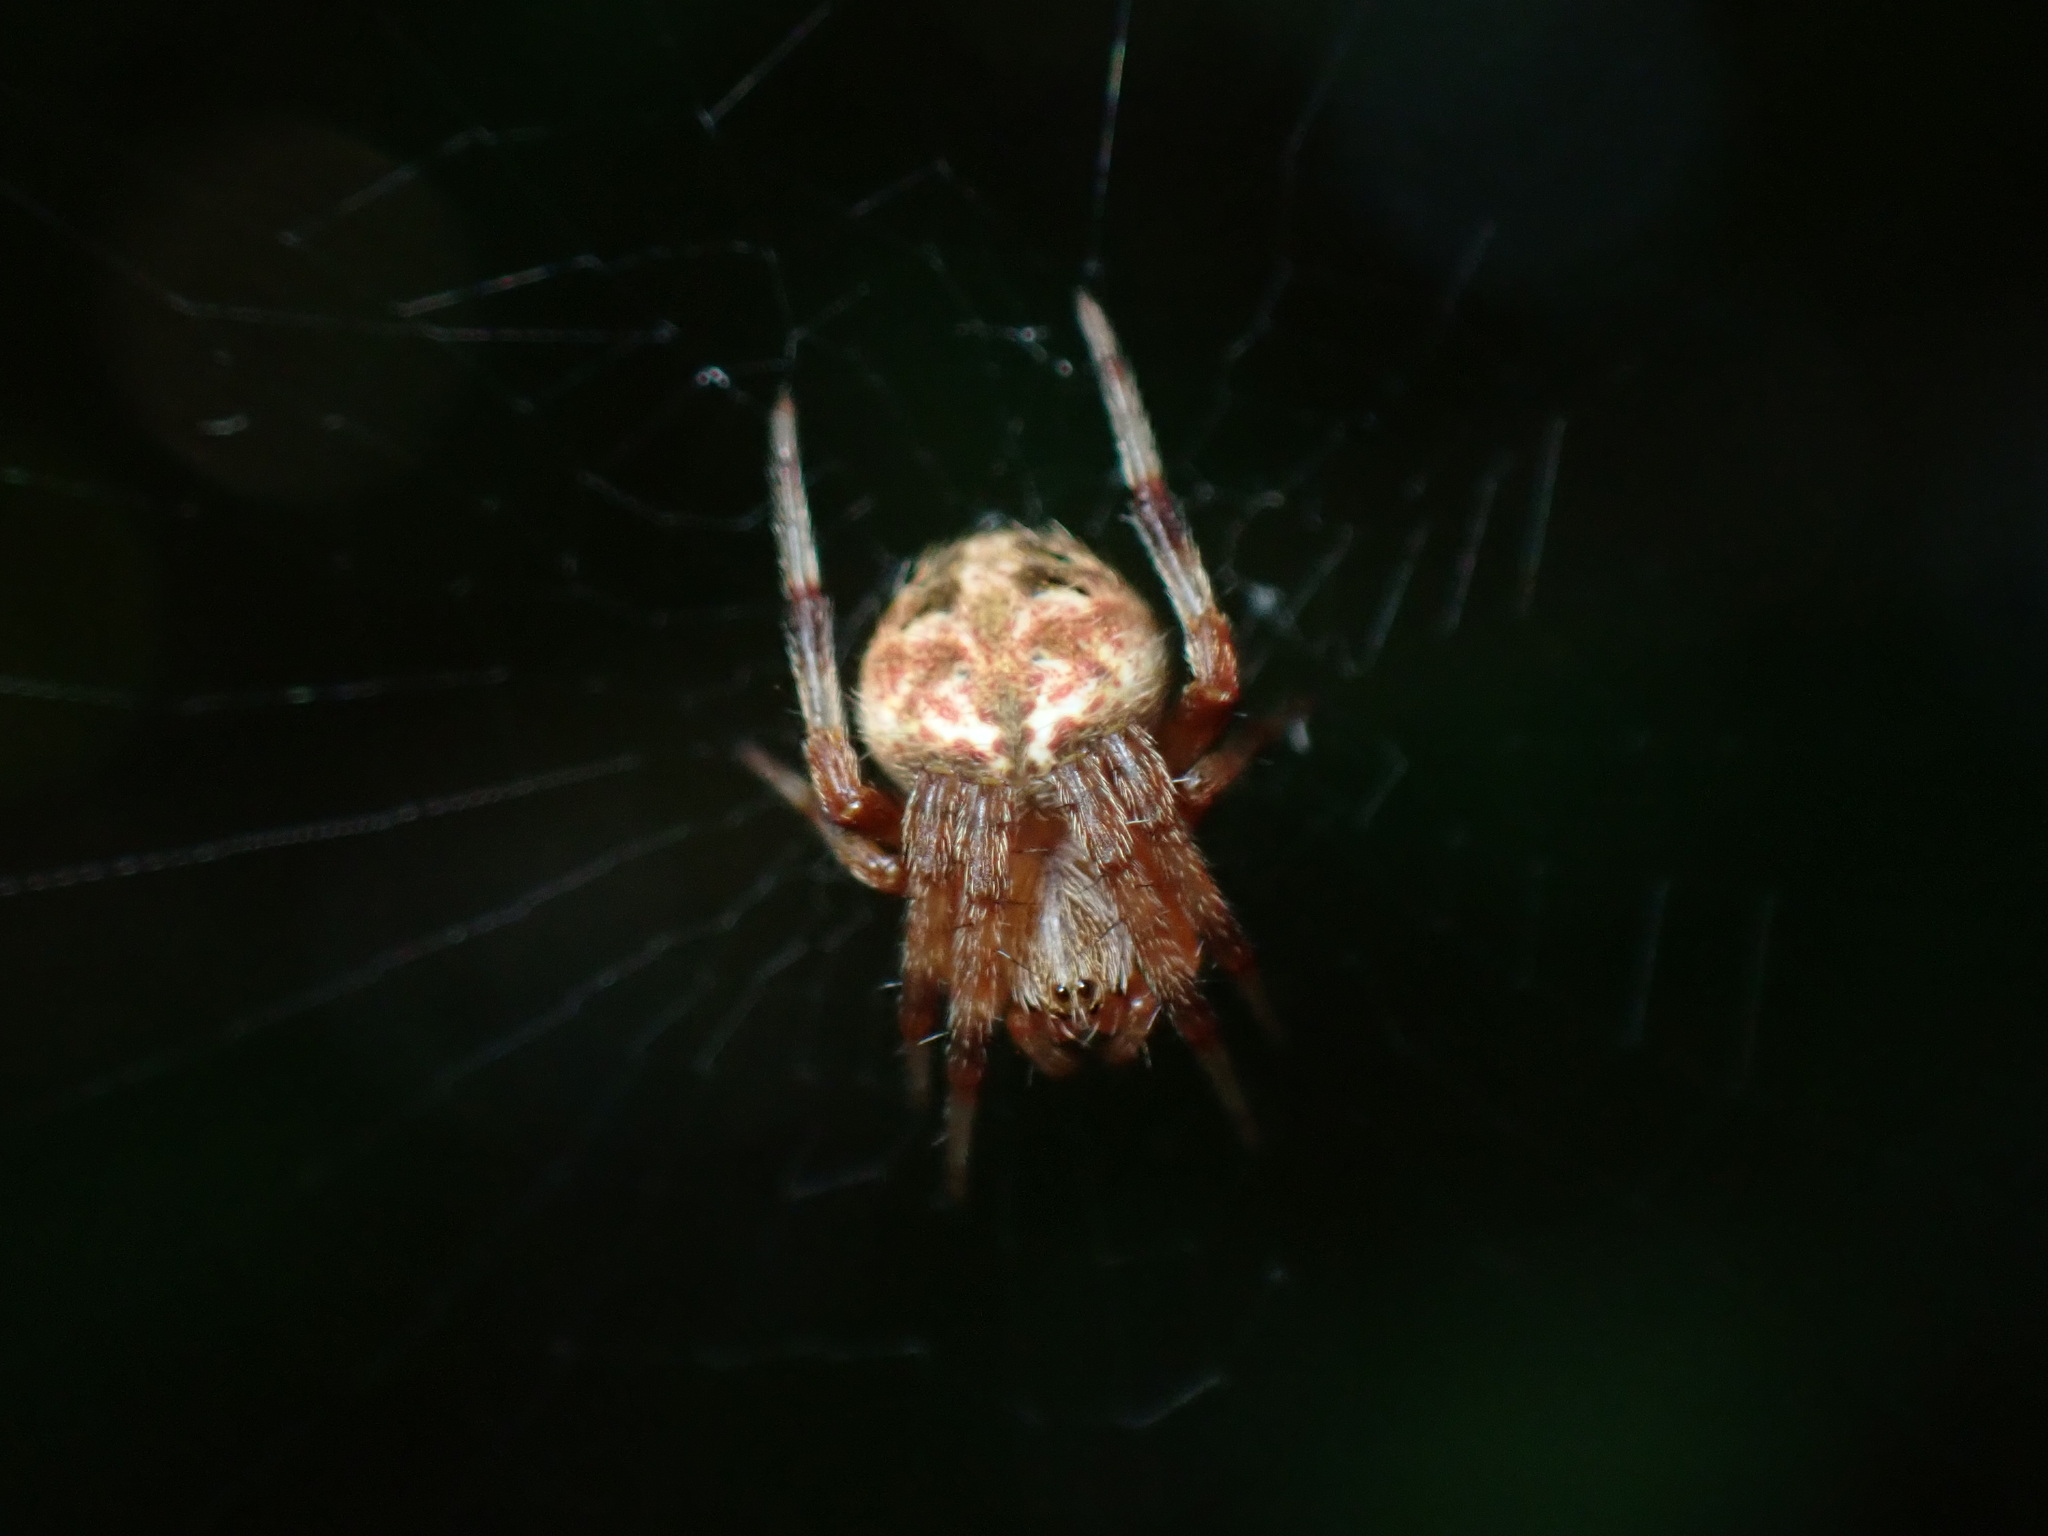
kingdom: Animalia
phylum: Arthropoda
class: Arachnida
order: Araneae
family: Araneidae
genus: Neoscona
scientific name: Neoscona arabesca
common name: Orb weavers
